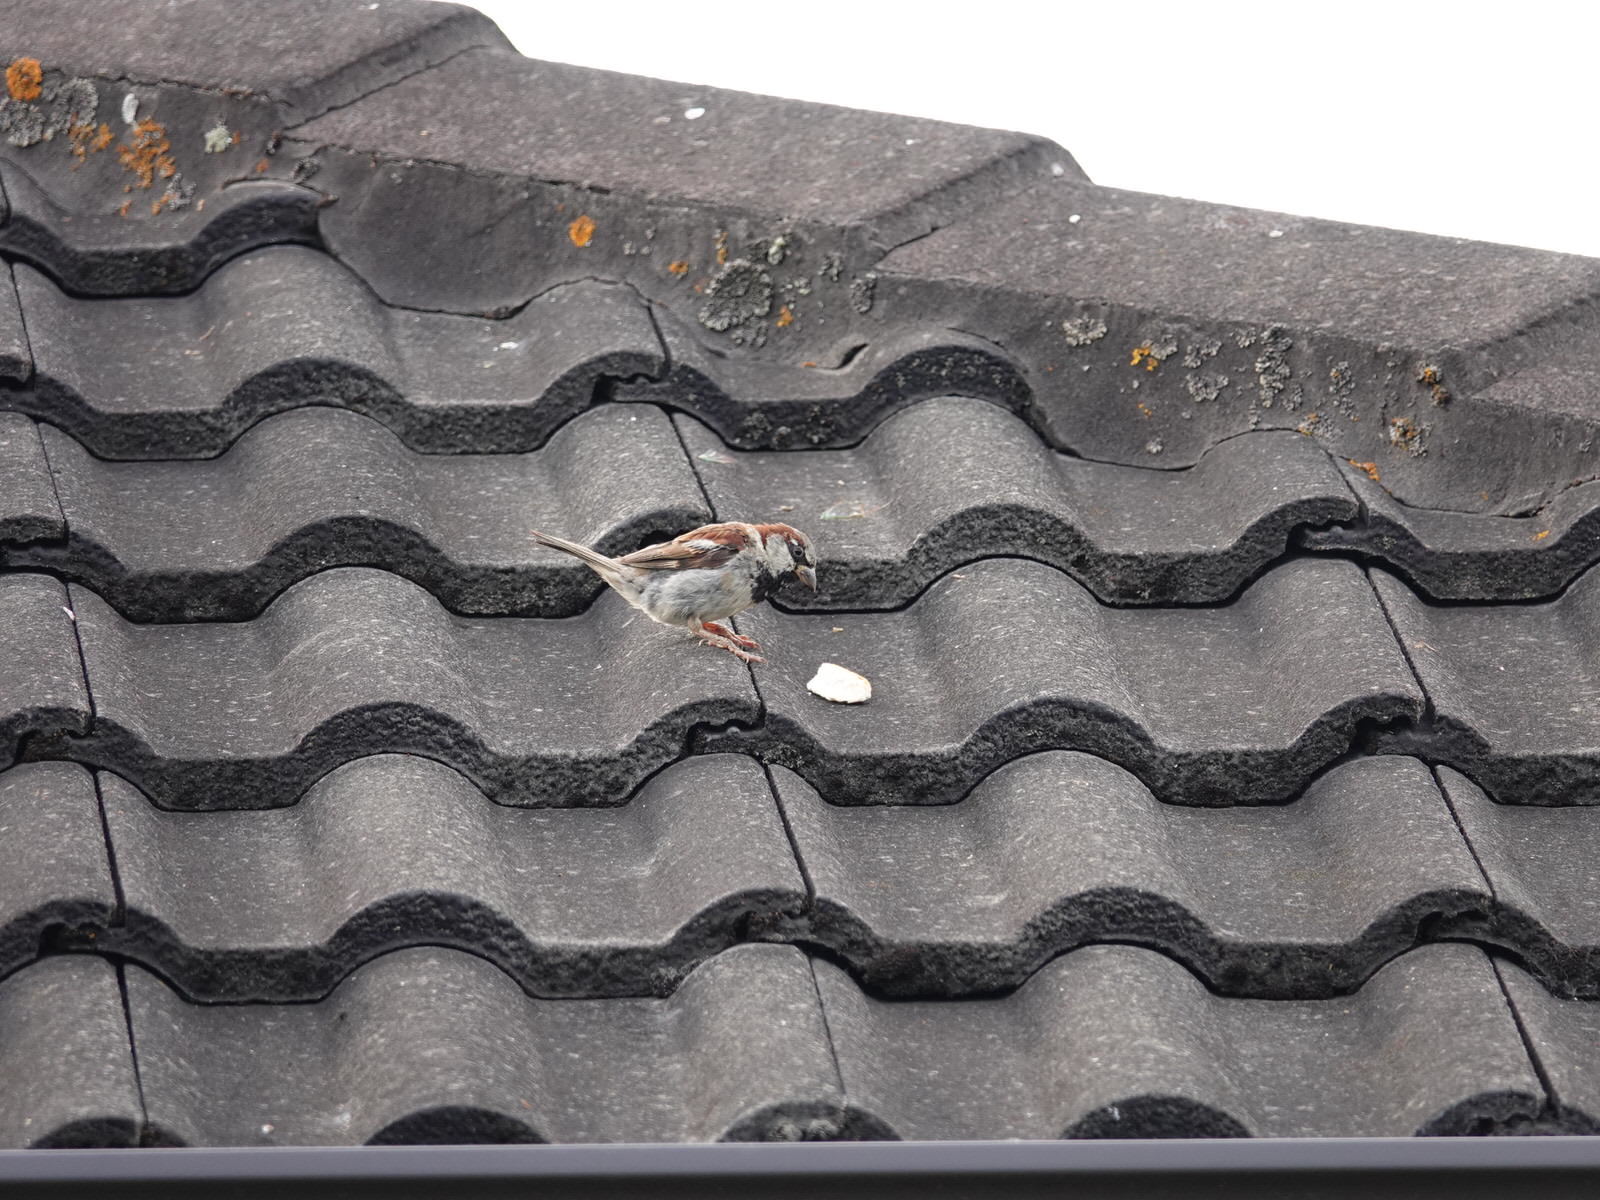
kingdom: Animalia
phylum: Chordata
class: Aves
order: Passeriformes
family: Passeridae
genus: Passer
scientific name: Passer domesticus
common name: House sparrow
